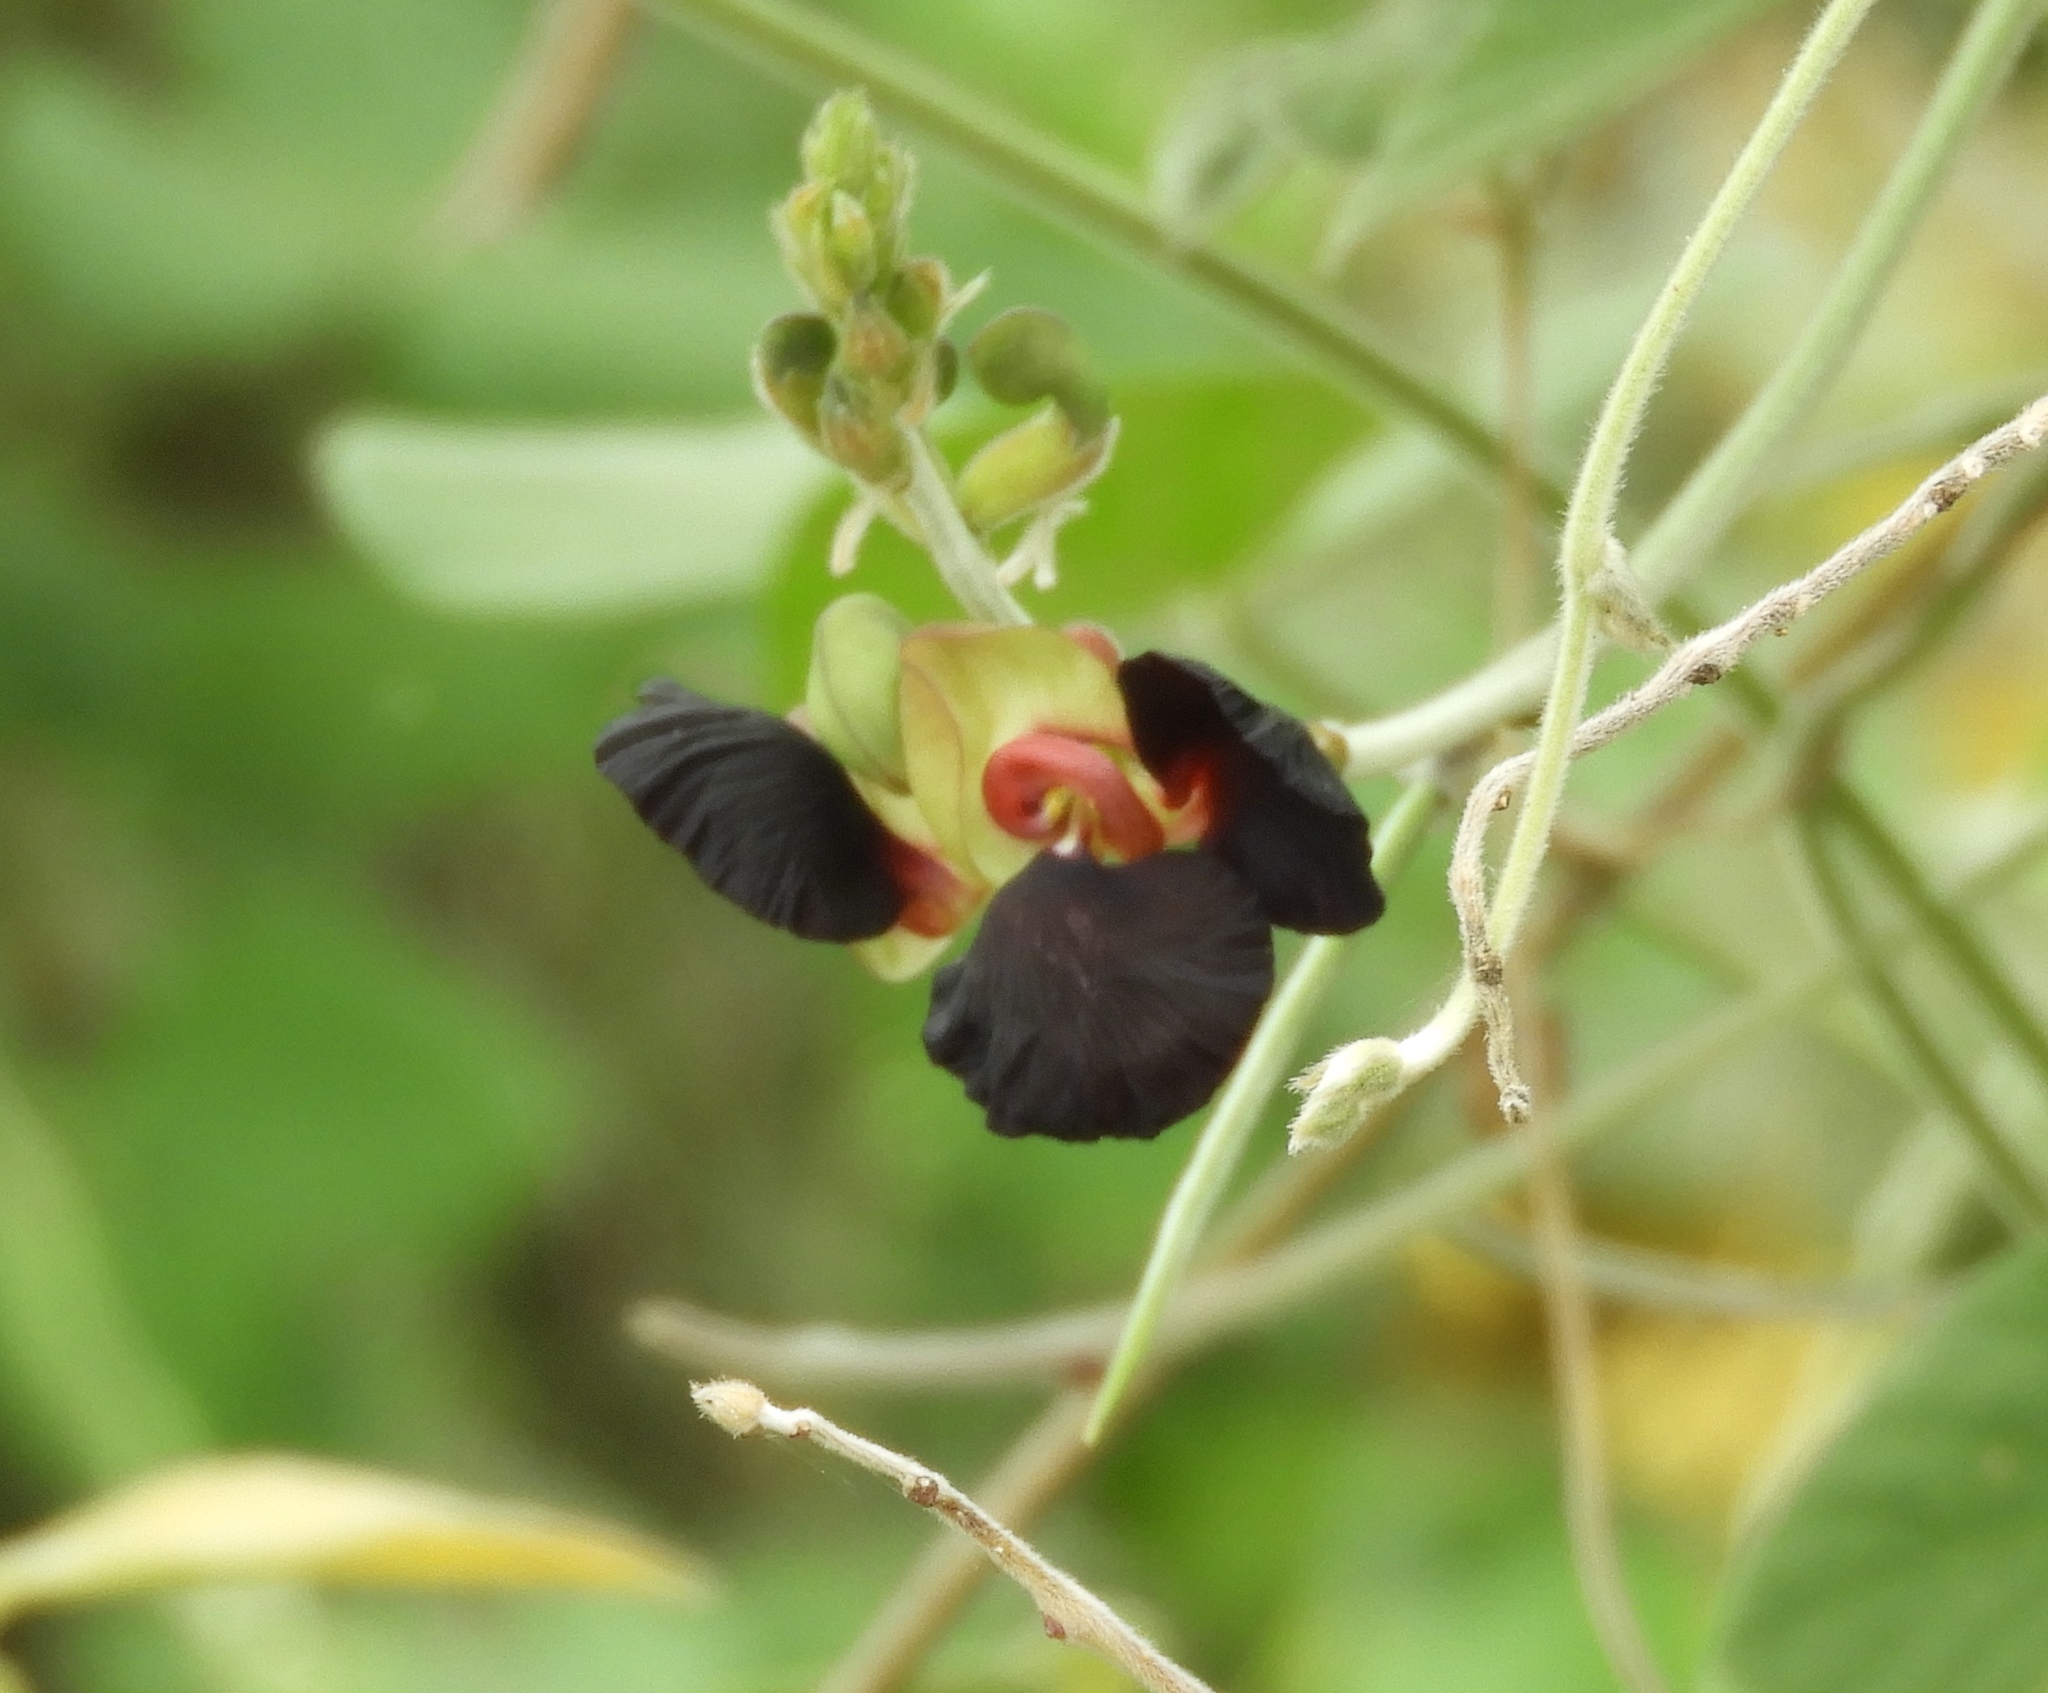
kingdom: Plantae
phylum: Tracheophyta
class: Magnoliopsida
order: Fabales
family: Fabaceae
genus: Macroptilium
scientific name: Macroptilium atropurpureum
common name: Purple bushbean
